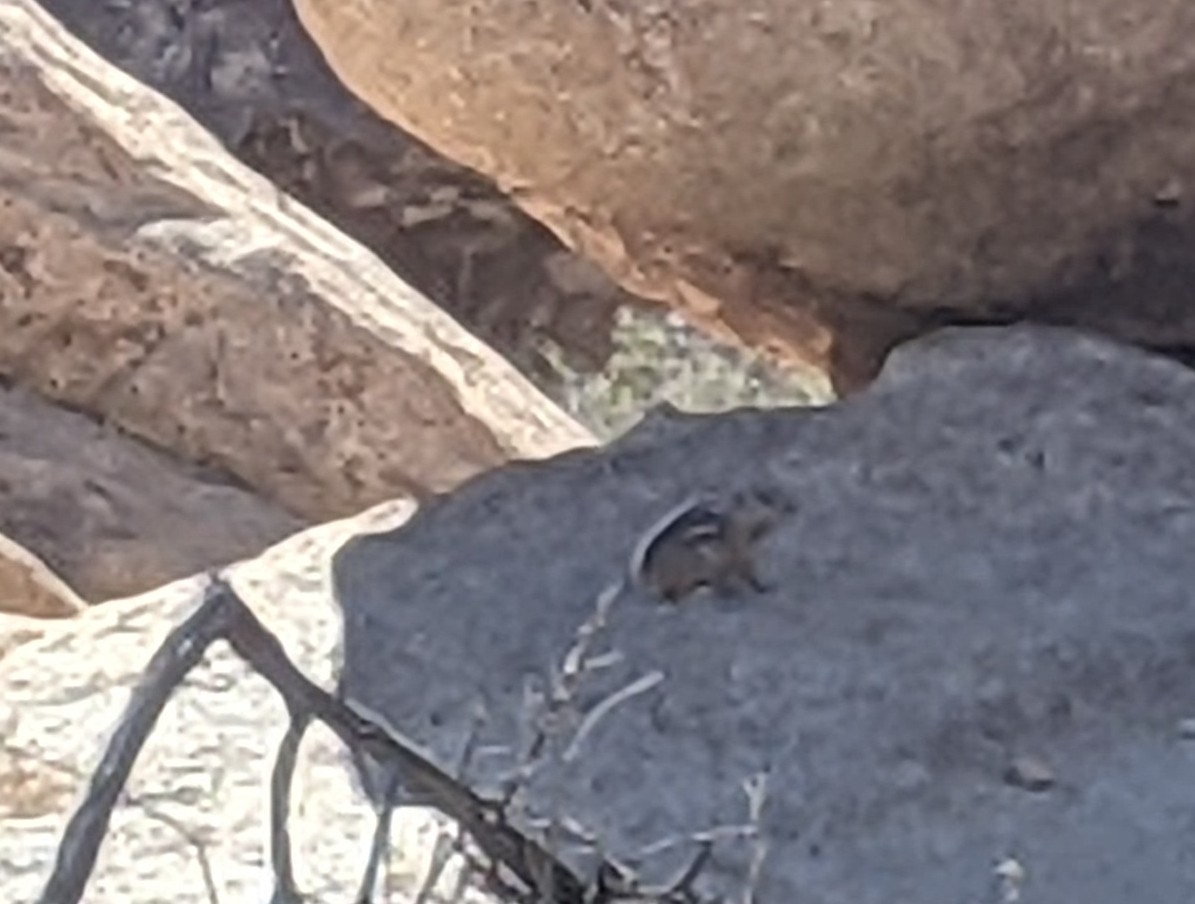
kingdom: Animalia
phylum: Chordata
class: Mammalia
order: Rodentia
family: Sciuridae
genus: Ammospermophilus
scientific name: Ammospermophilus leucurus
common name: White-tailed antelope squirrel
